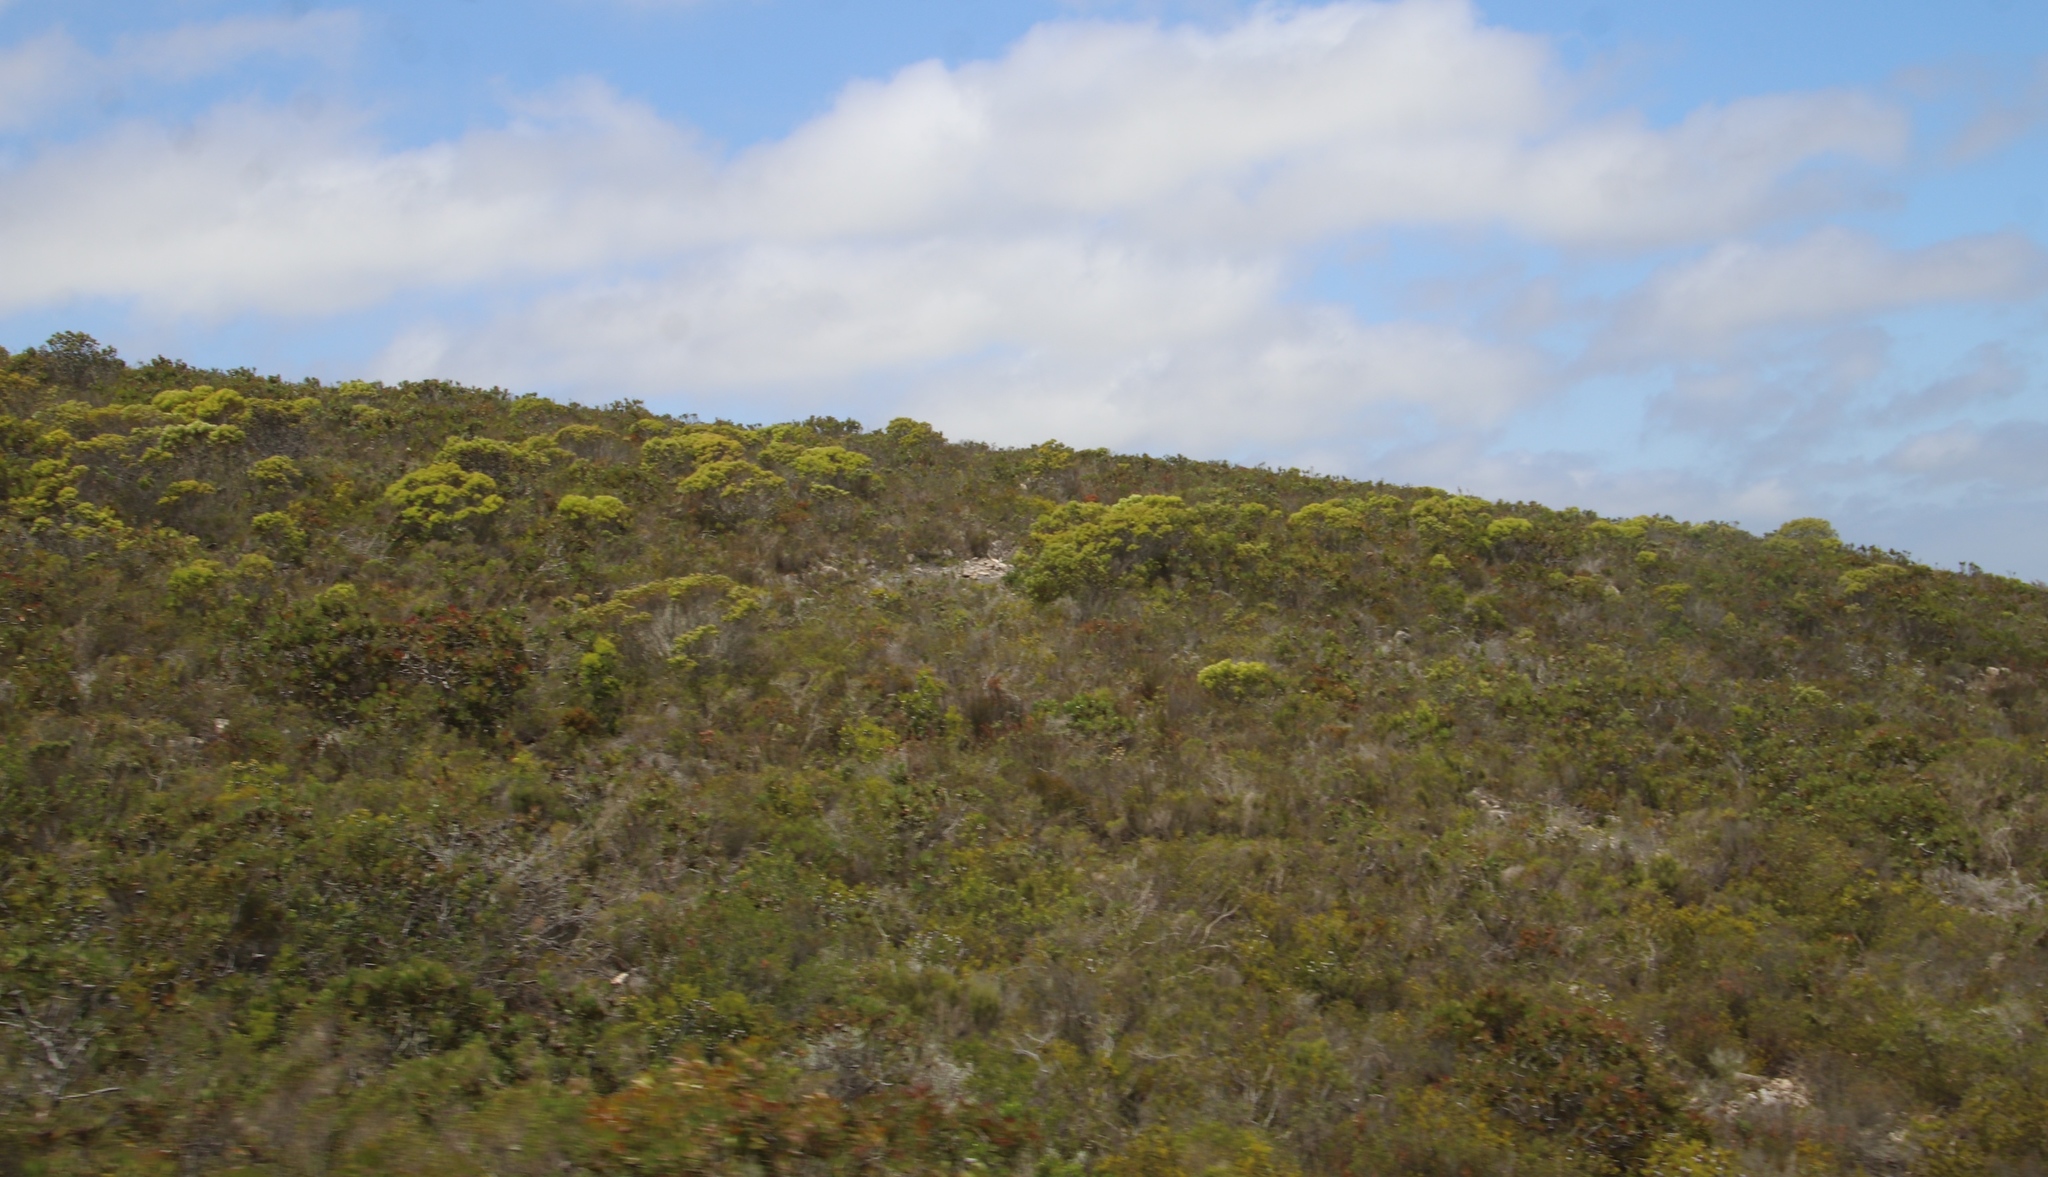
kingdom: Plantae
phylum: Tracheophyta
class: Magnoliopsida
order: Proteales
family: Proteaceae
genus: Leucadendron
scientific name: Leucadendron meridianum
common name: Limestone conebush
